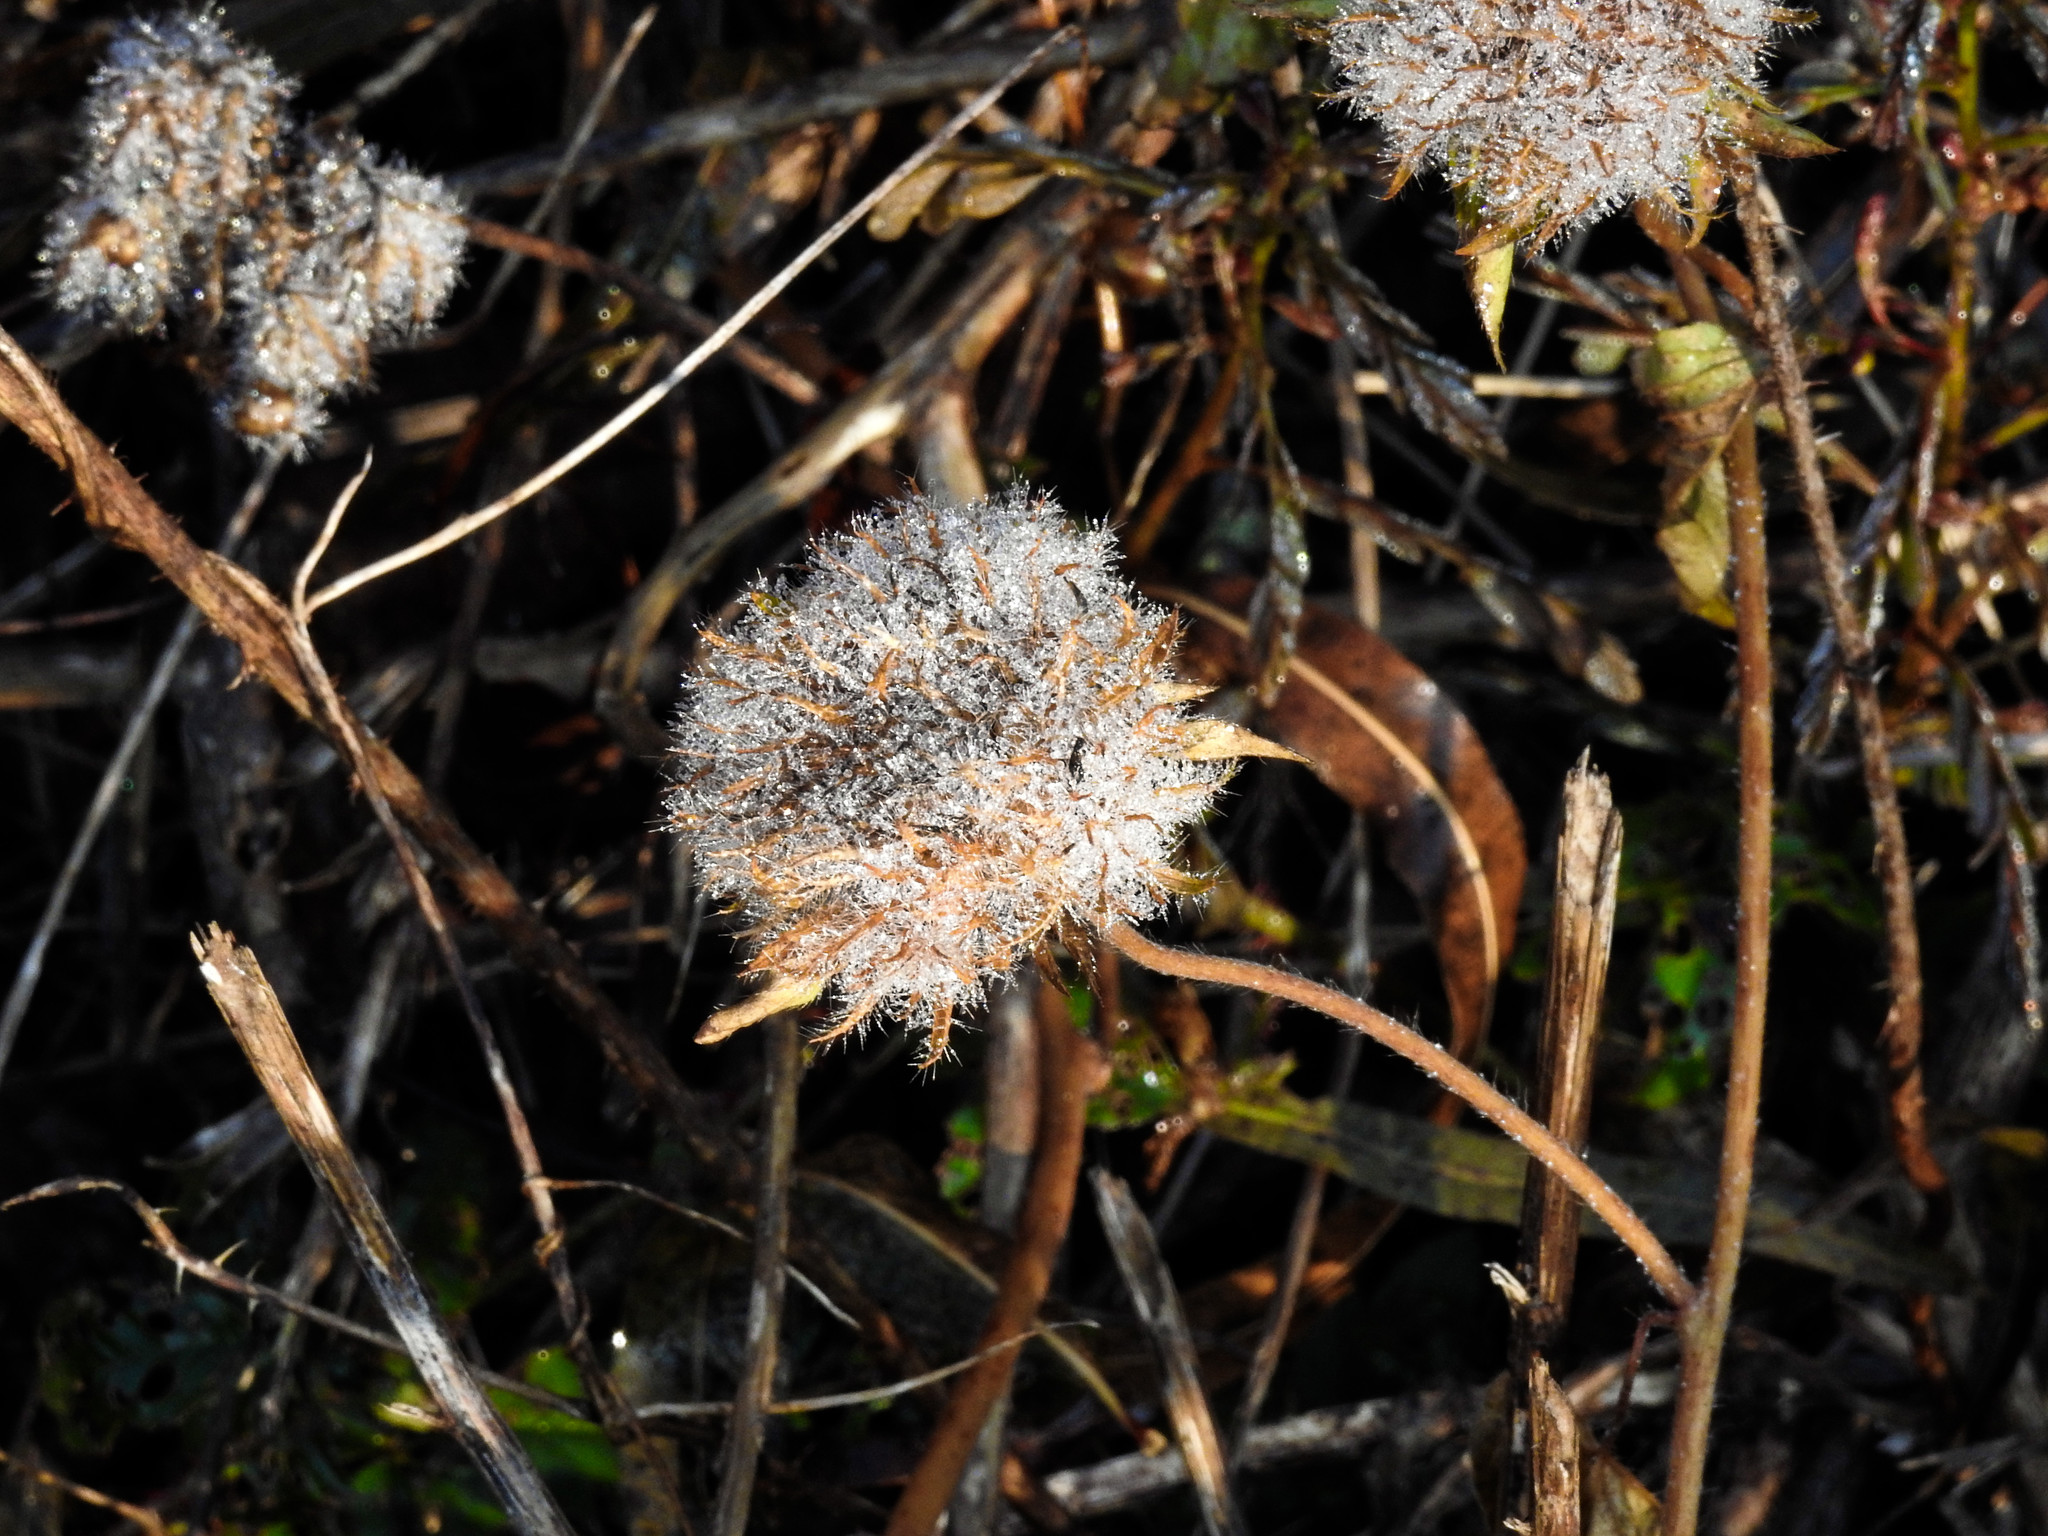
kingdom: Plantae
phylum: Tracheophyta
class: Magnoliopsida
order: Solanales
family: Convolvulaceae
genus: Jacquemontia
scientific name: Jacquemontia tamnifolia
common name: Hairy clustervine
